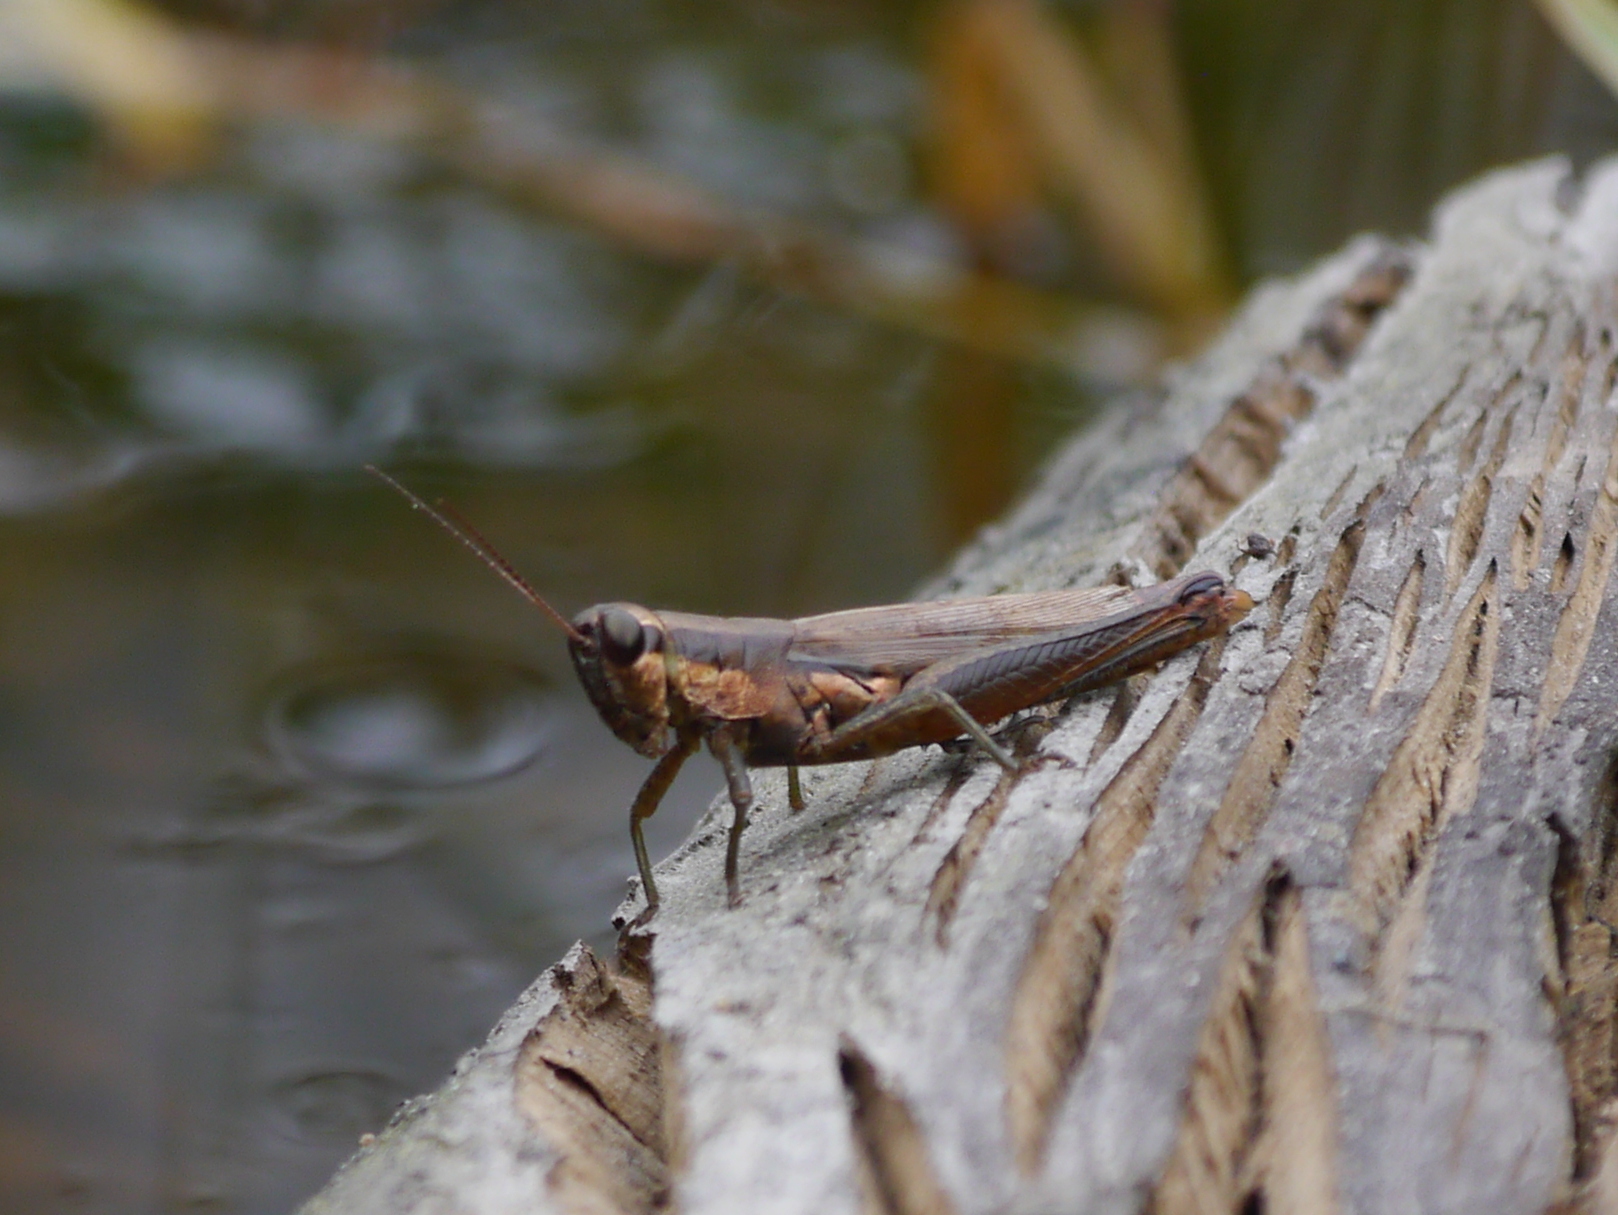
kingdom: Animalia
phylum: Arthropoda
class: Insecta
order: Orthoptera
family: Acrididae
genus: Paroxya
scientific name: Paroxya clavuligera
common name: Olive-green swamp grasshopper
